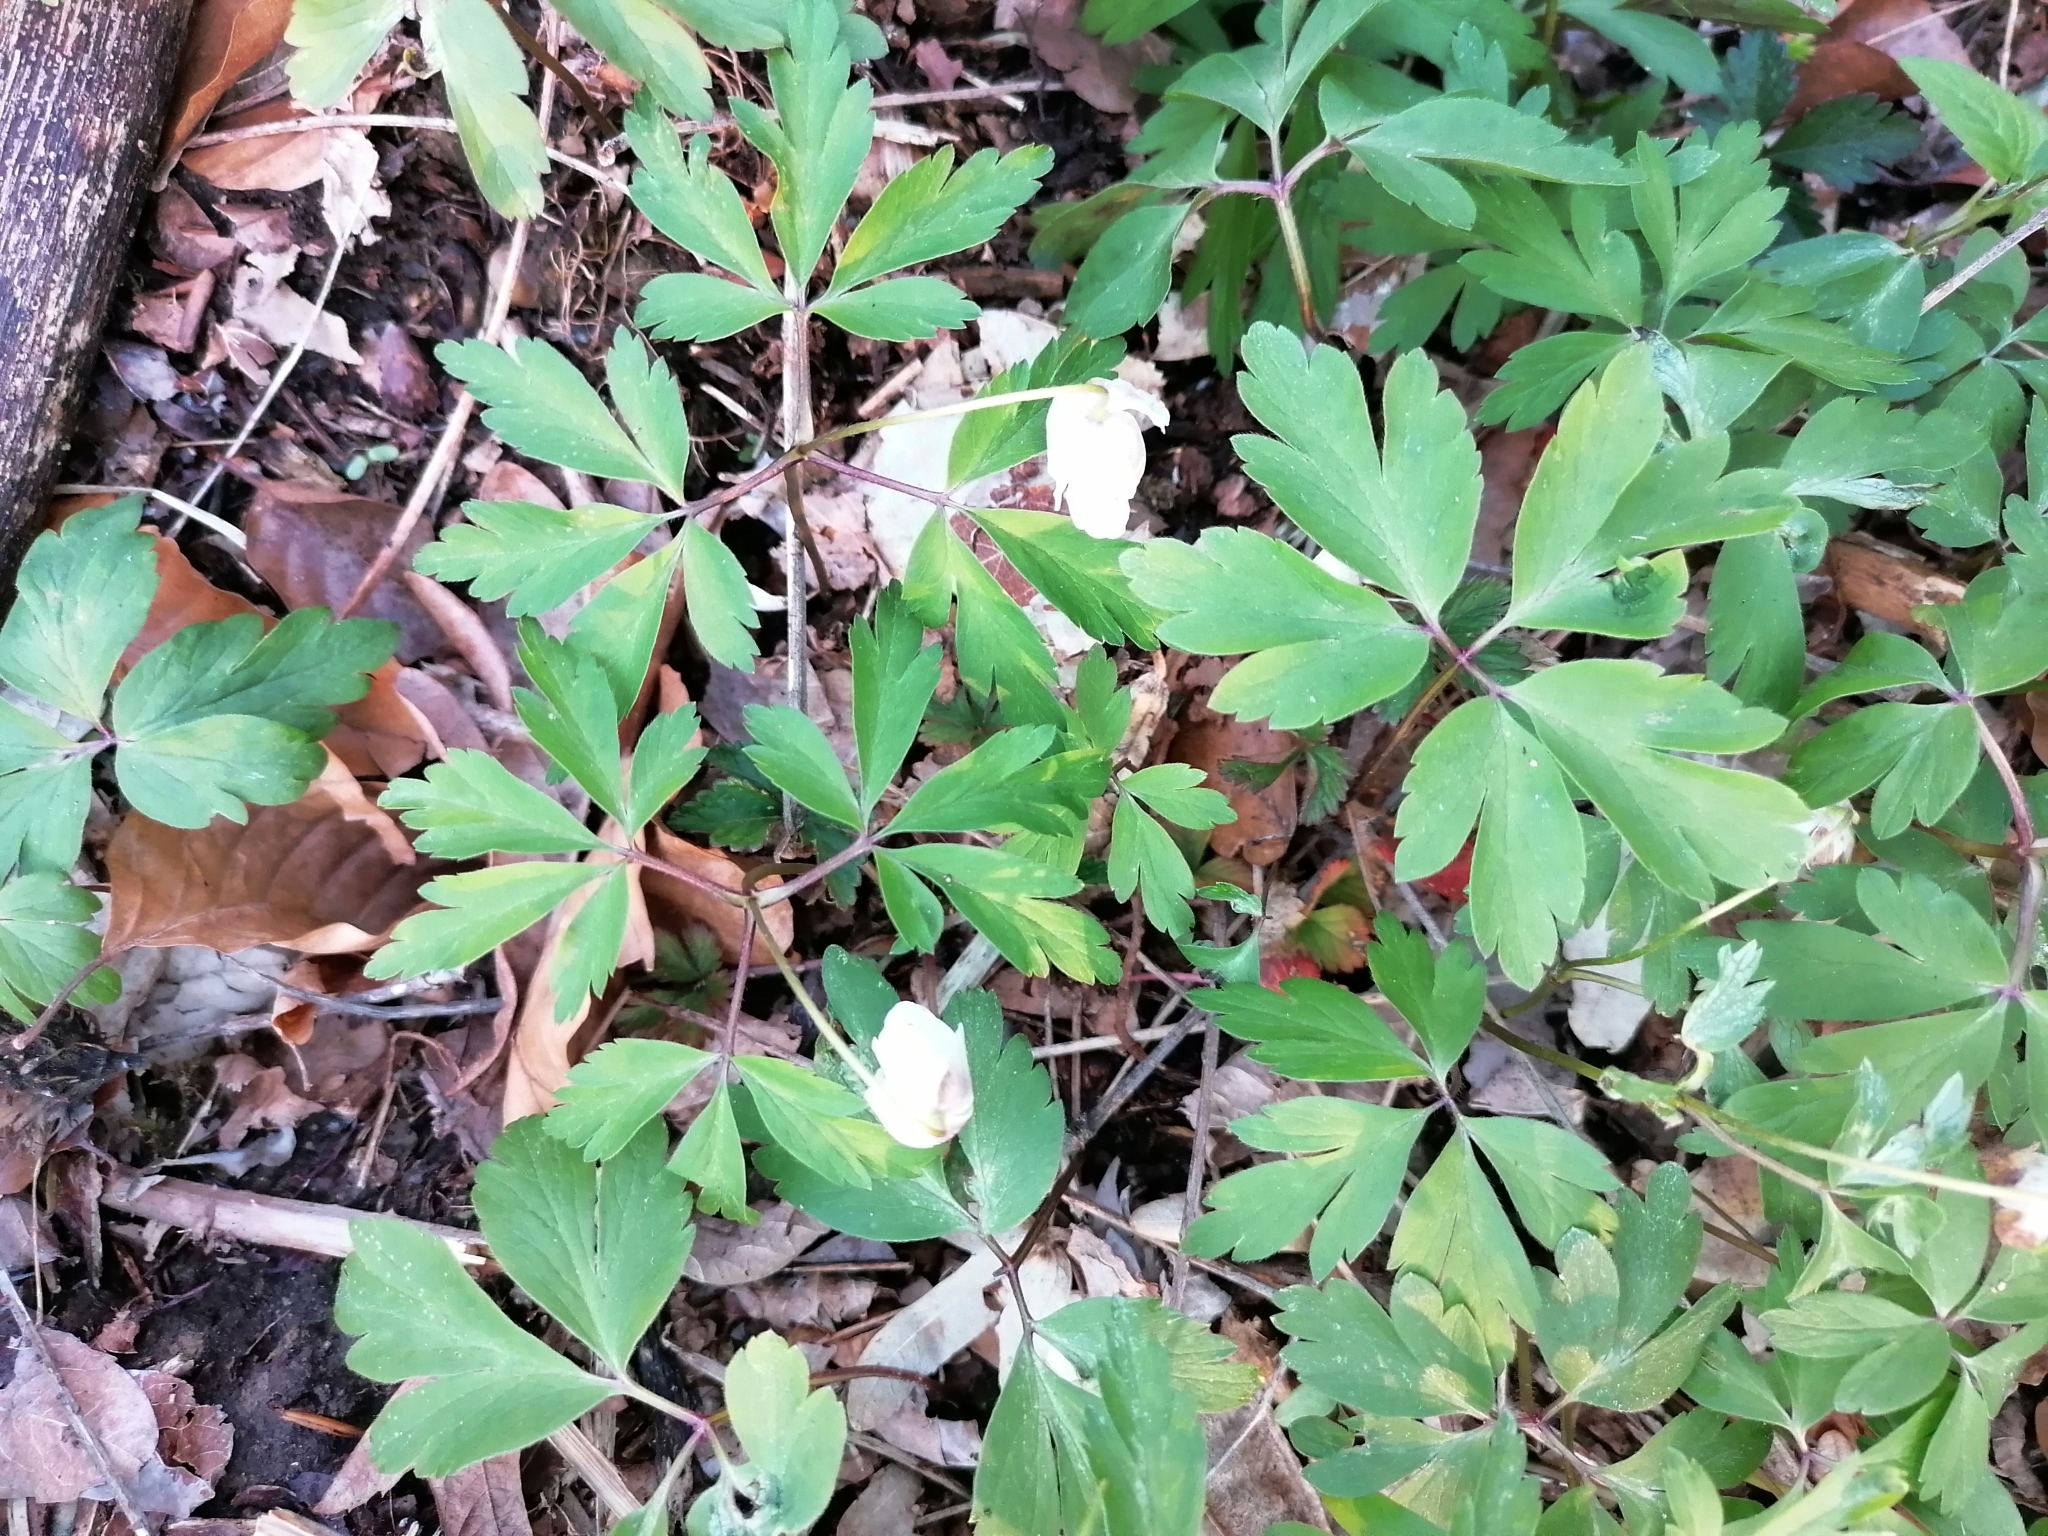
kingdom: Plantae
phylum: Tracheophyta
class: Magnoliopsida
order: Ranunculales
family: Ranunculaceae
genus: Anemone
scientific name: Anemone nemorosa
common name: Wood anemone
